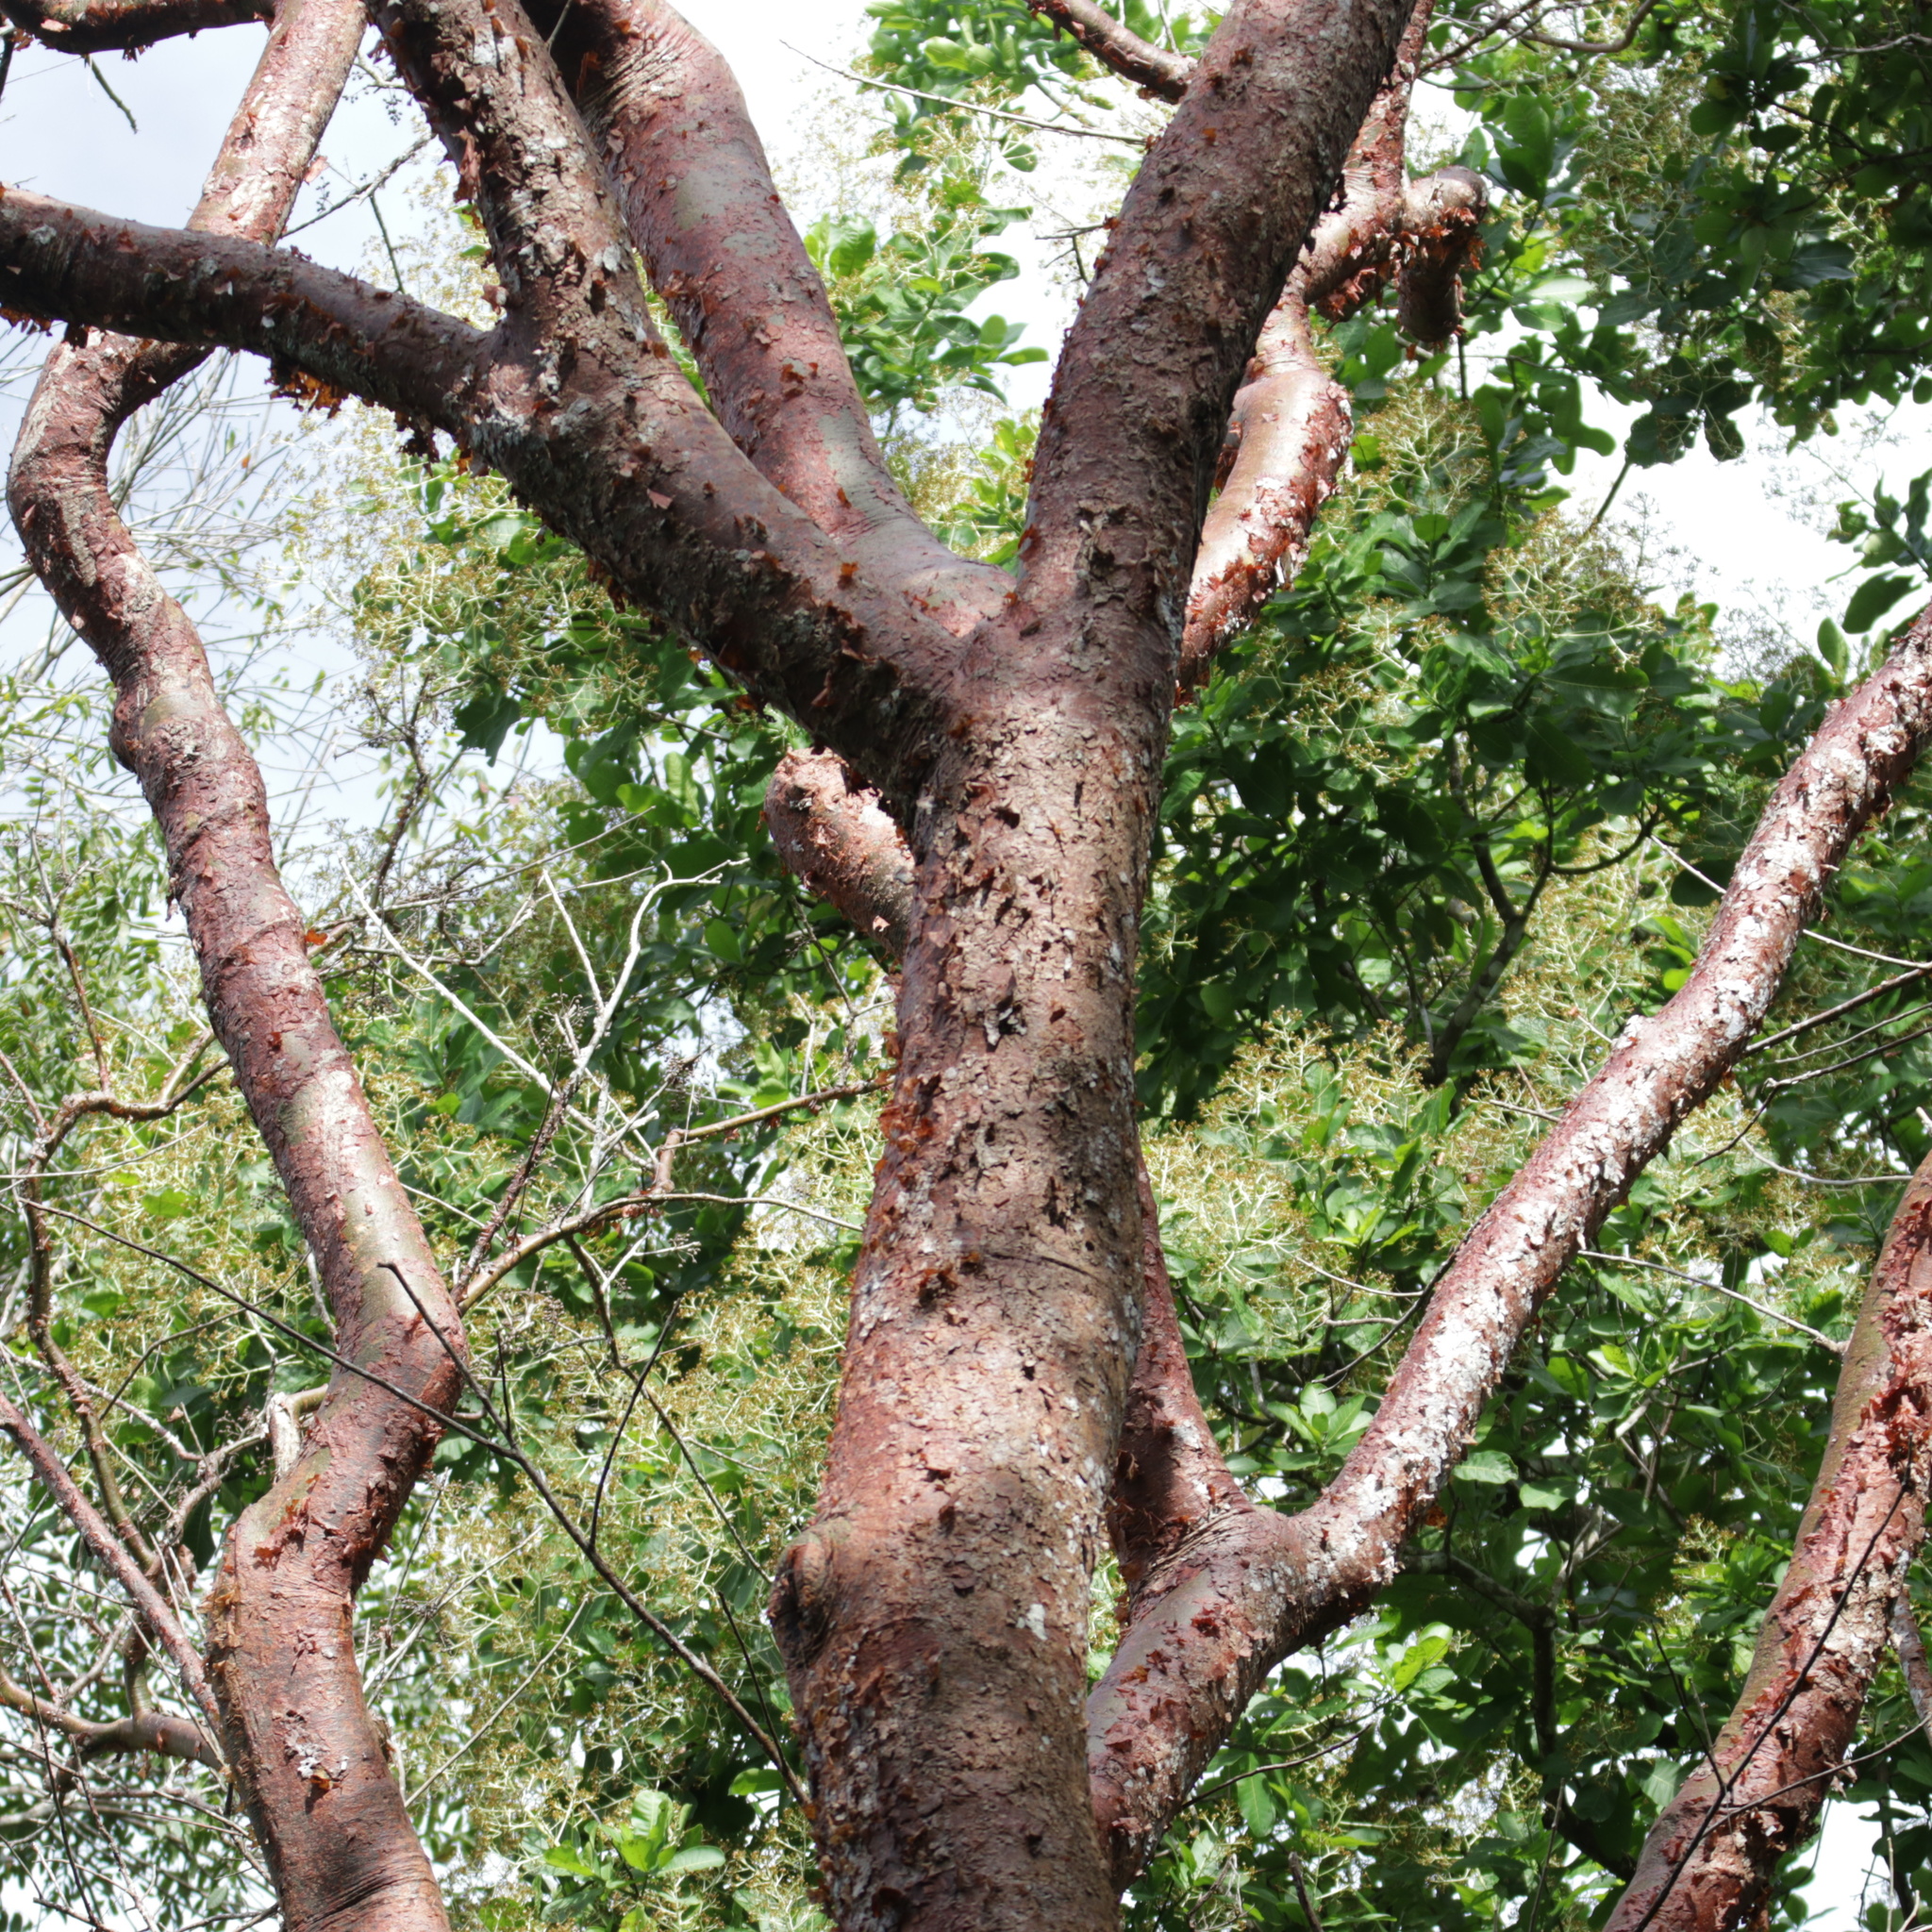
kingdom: Plantae
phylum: Tracheophyta
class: Magnoliopsida
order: Sapindales
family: Burseraceae
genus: Bursera
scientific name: Bursera simaruba
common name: Turpentine tree
